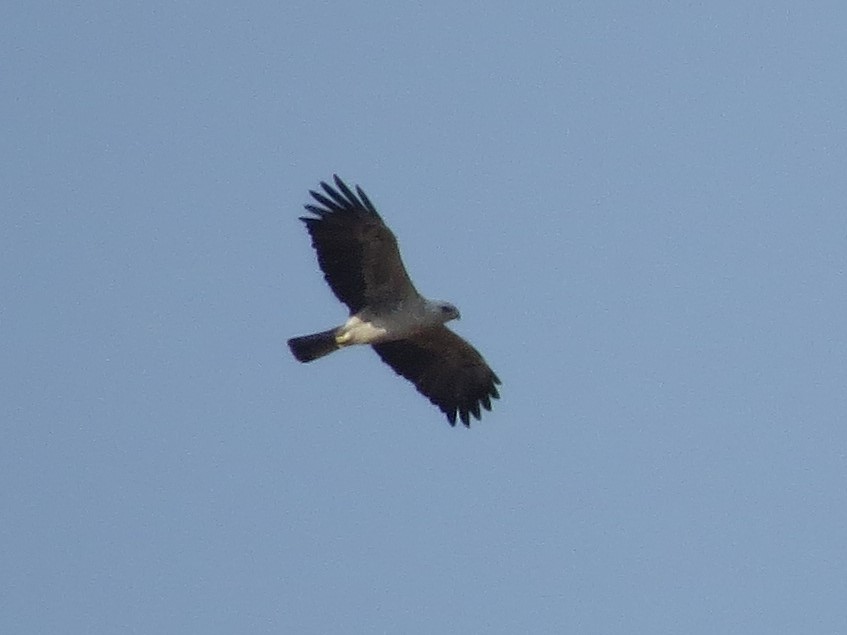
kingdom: Animalia
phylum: Chordata
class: Aves
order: Accipitriformes
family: Accipitridae
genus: Hieraaetus
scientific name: Hieraaetus wahlbergi
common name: Wahlberg's eagle
